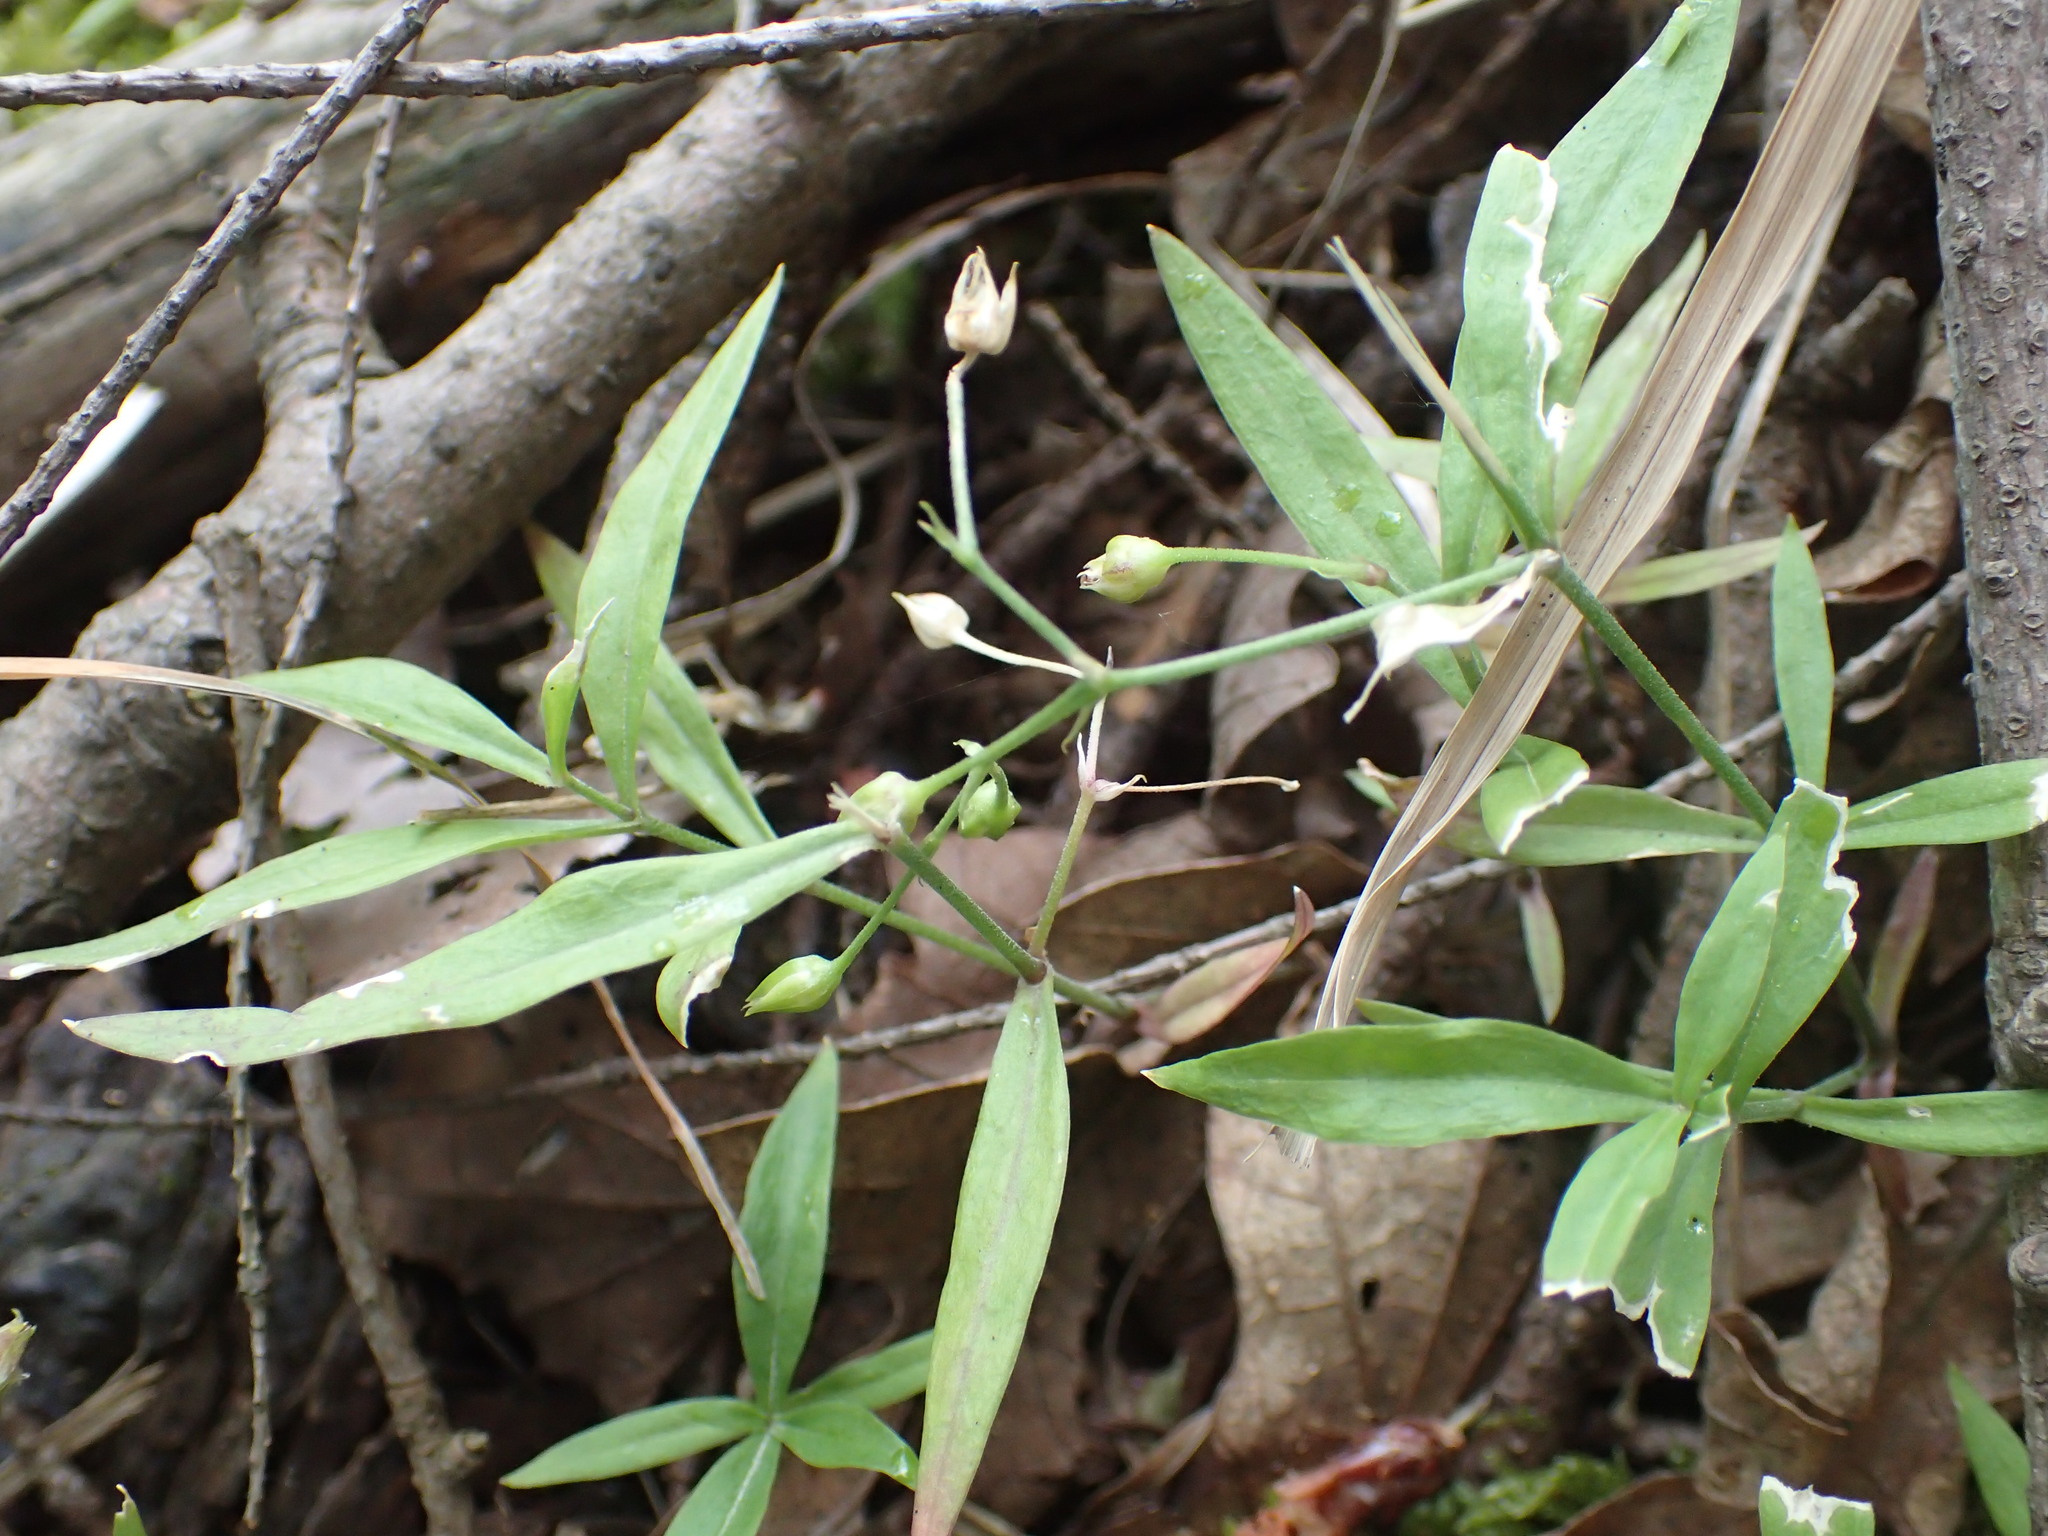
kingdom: Plantae
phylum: Tracheophyta
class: Magnoliopsida
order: Caryophyllales
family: Caryophyllaceae
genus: Moehringia
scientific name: Moehringia macrophylla
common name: Big-leaf sandwort
